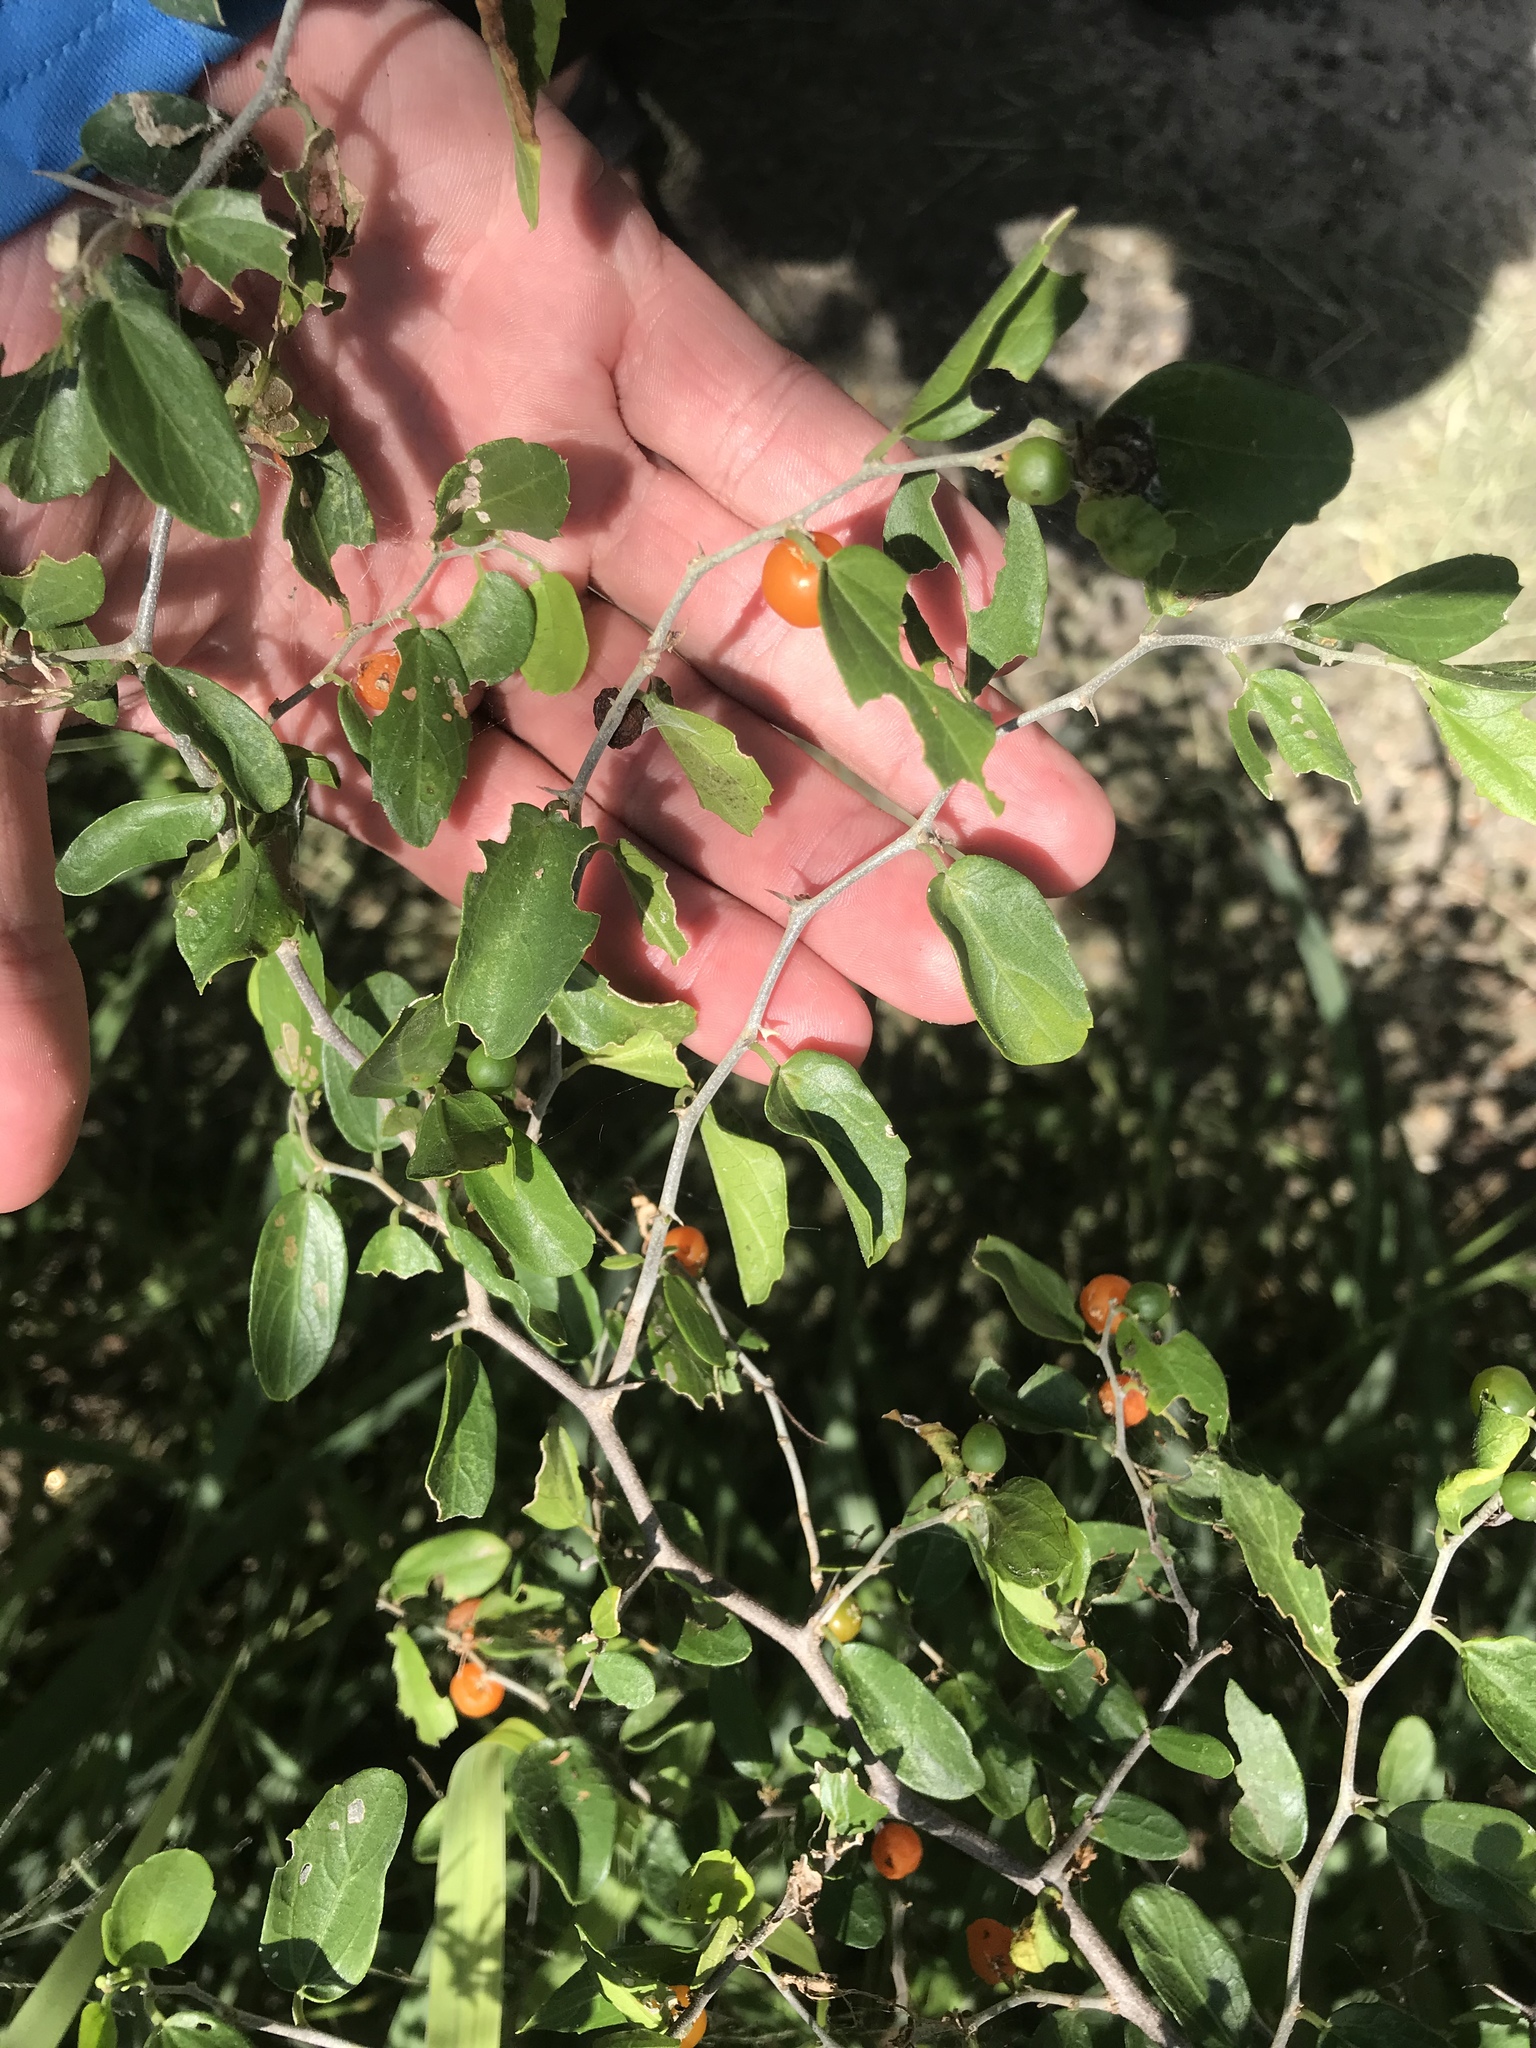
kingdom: Plantae
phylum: Tracheophyta
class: Magnoliopsida
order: Rosales
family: Cannabaceae
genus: Celtis
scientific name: Celtis pallida
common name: Desert hackberry
